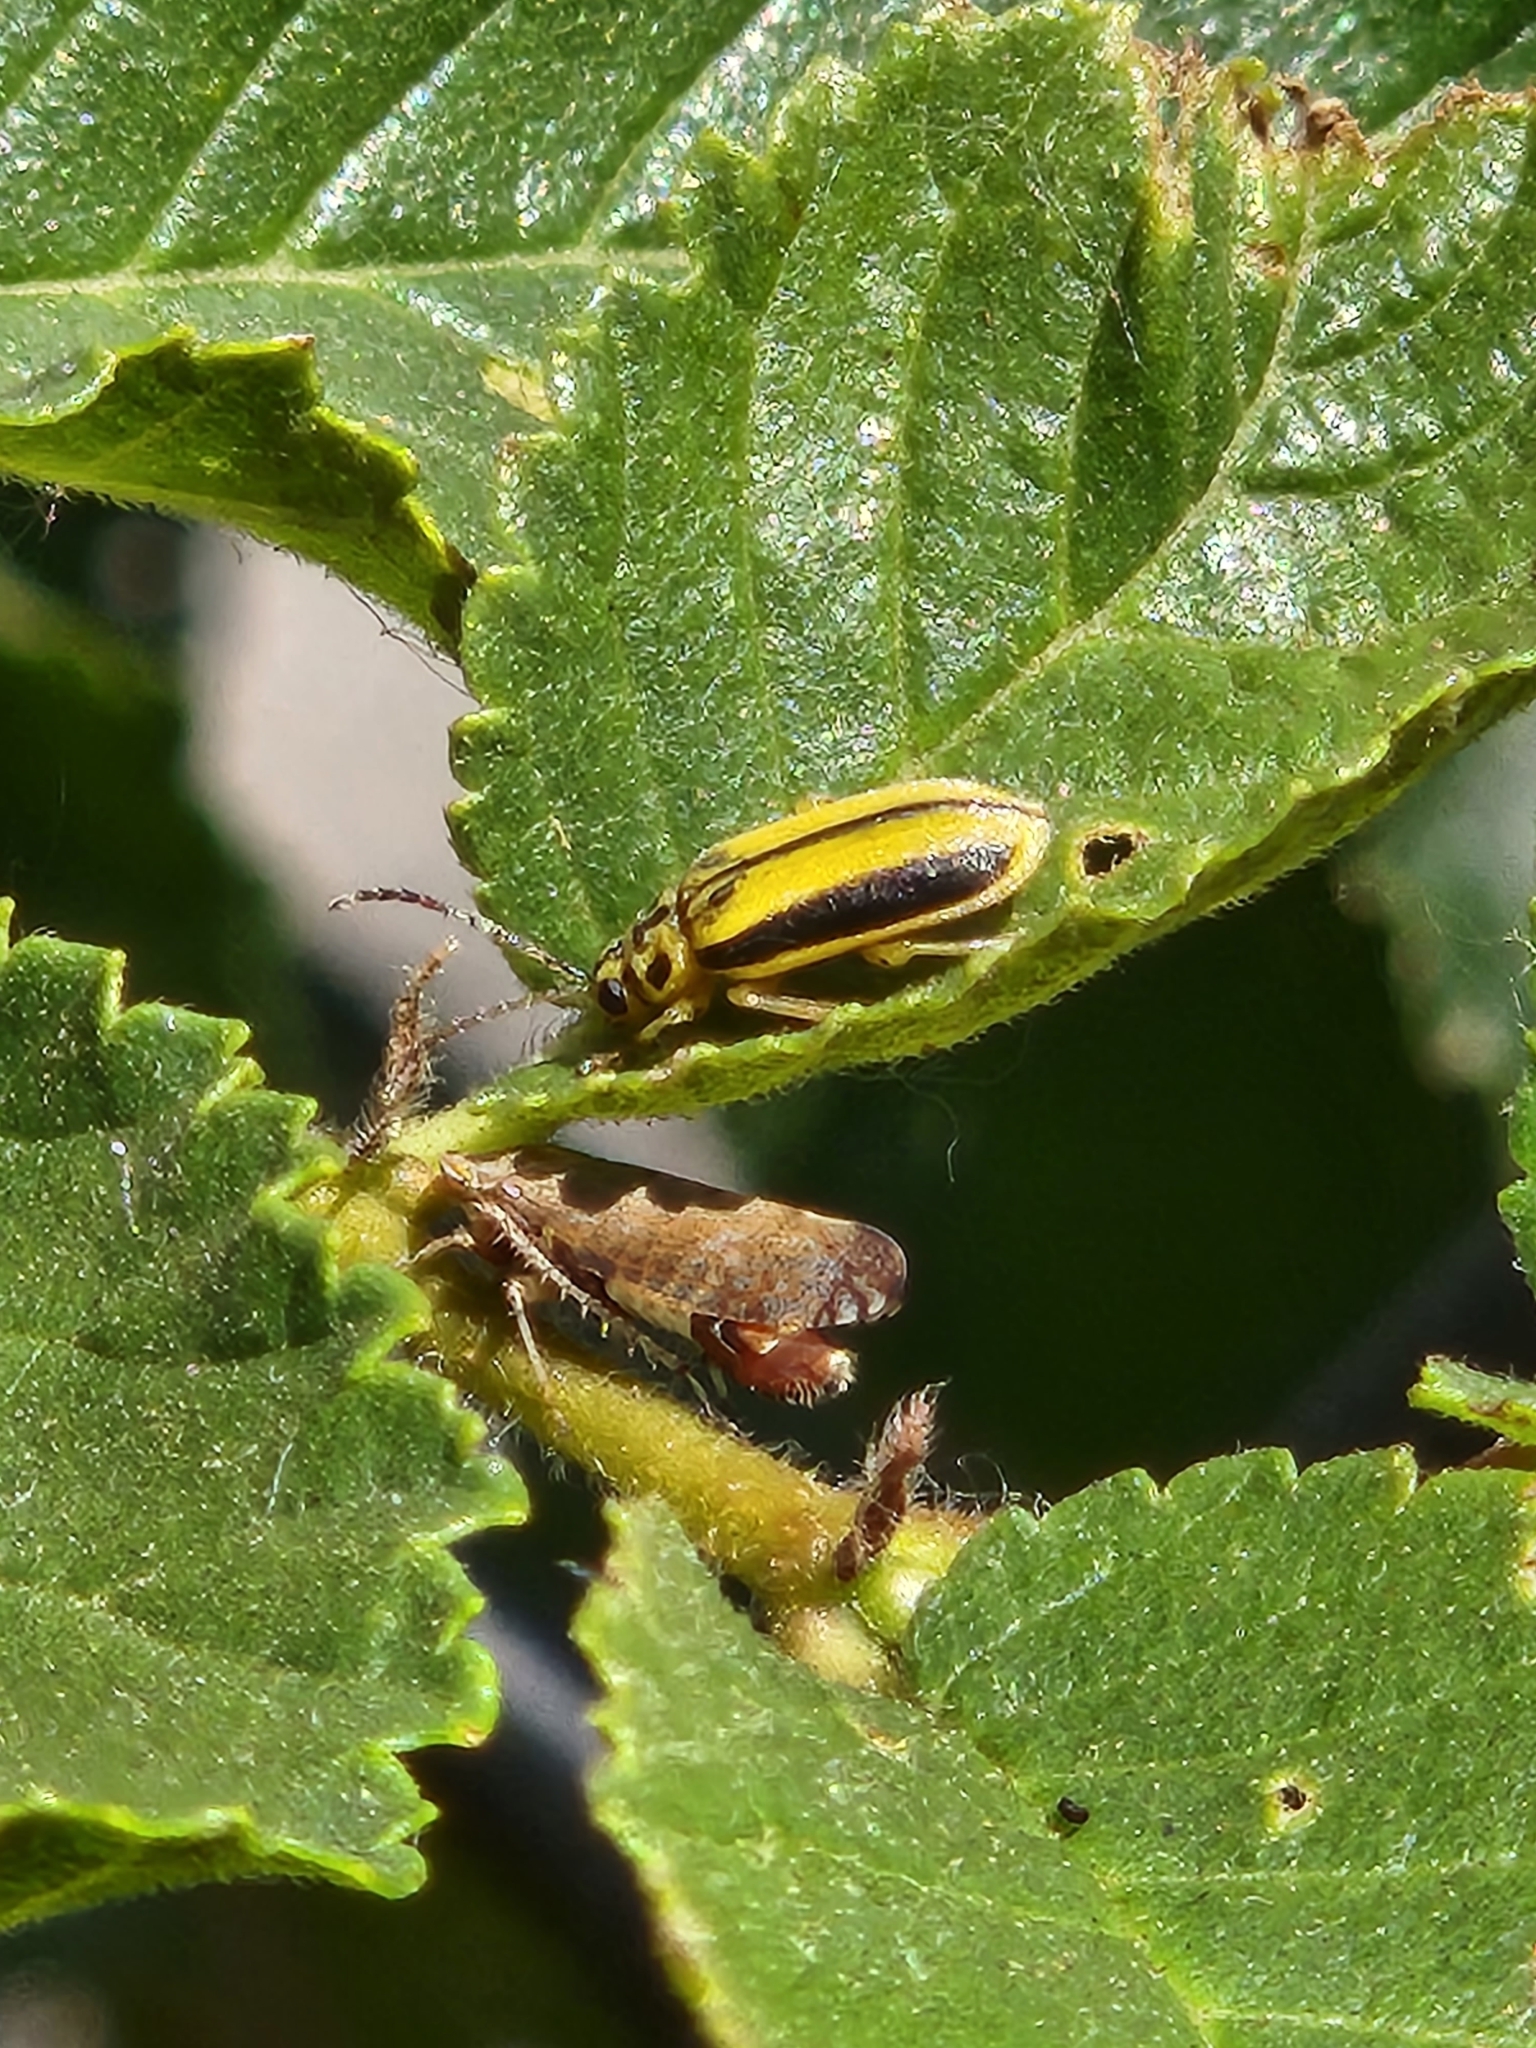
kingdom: Animalia
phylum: Arthropoda
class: Insecta
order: Coleoptera
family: Chrysomelidae
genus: Xanthogaleruca
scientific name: Xanthogaleruca luteola
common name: Elm leaf beetle
